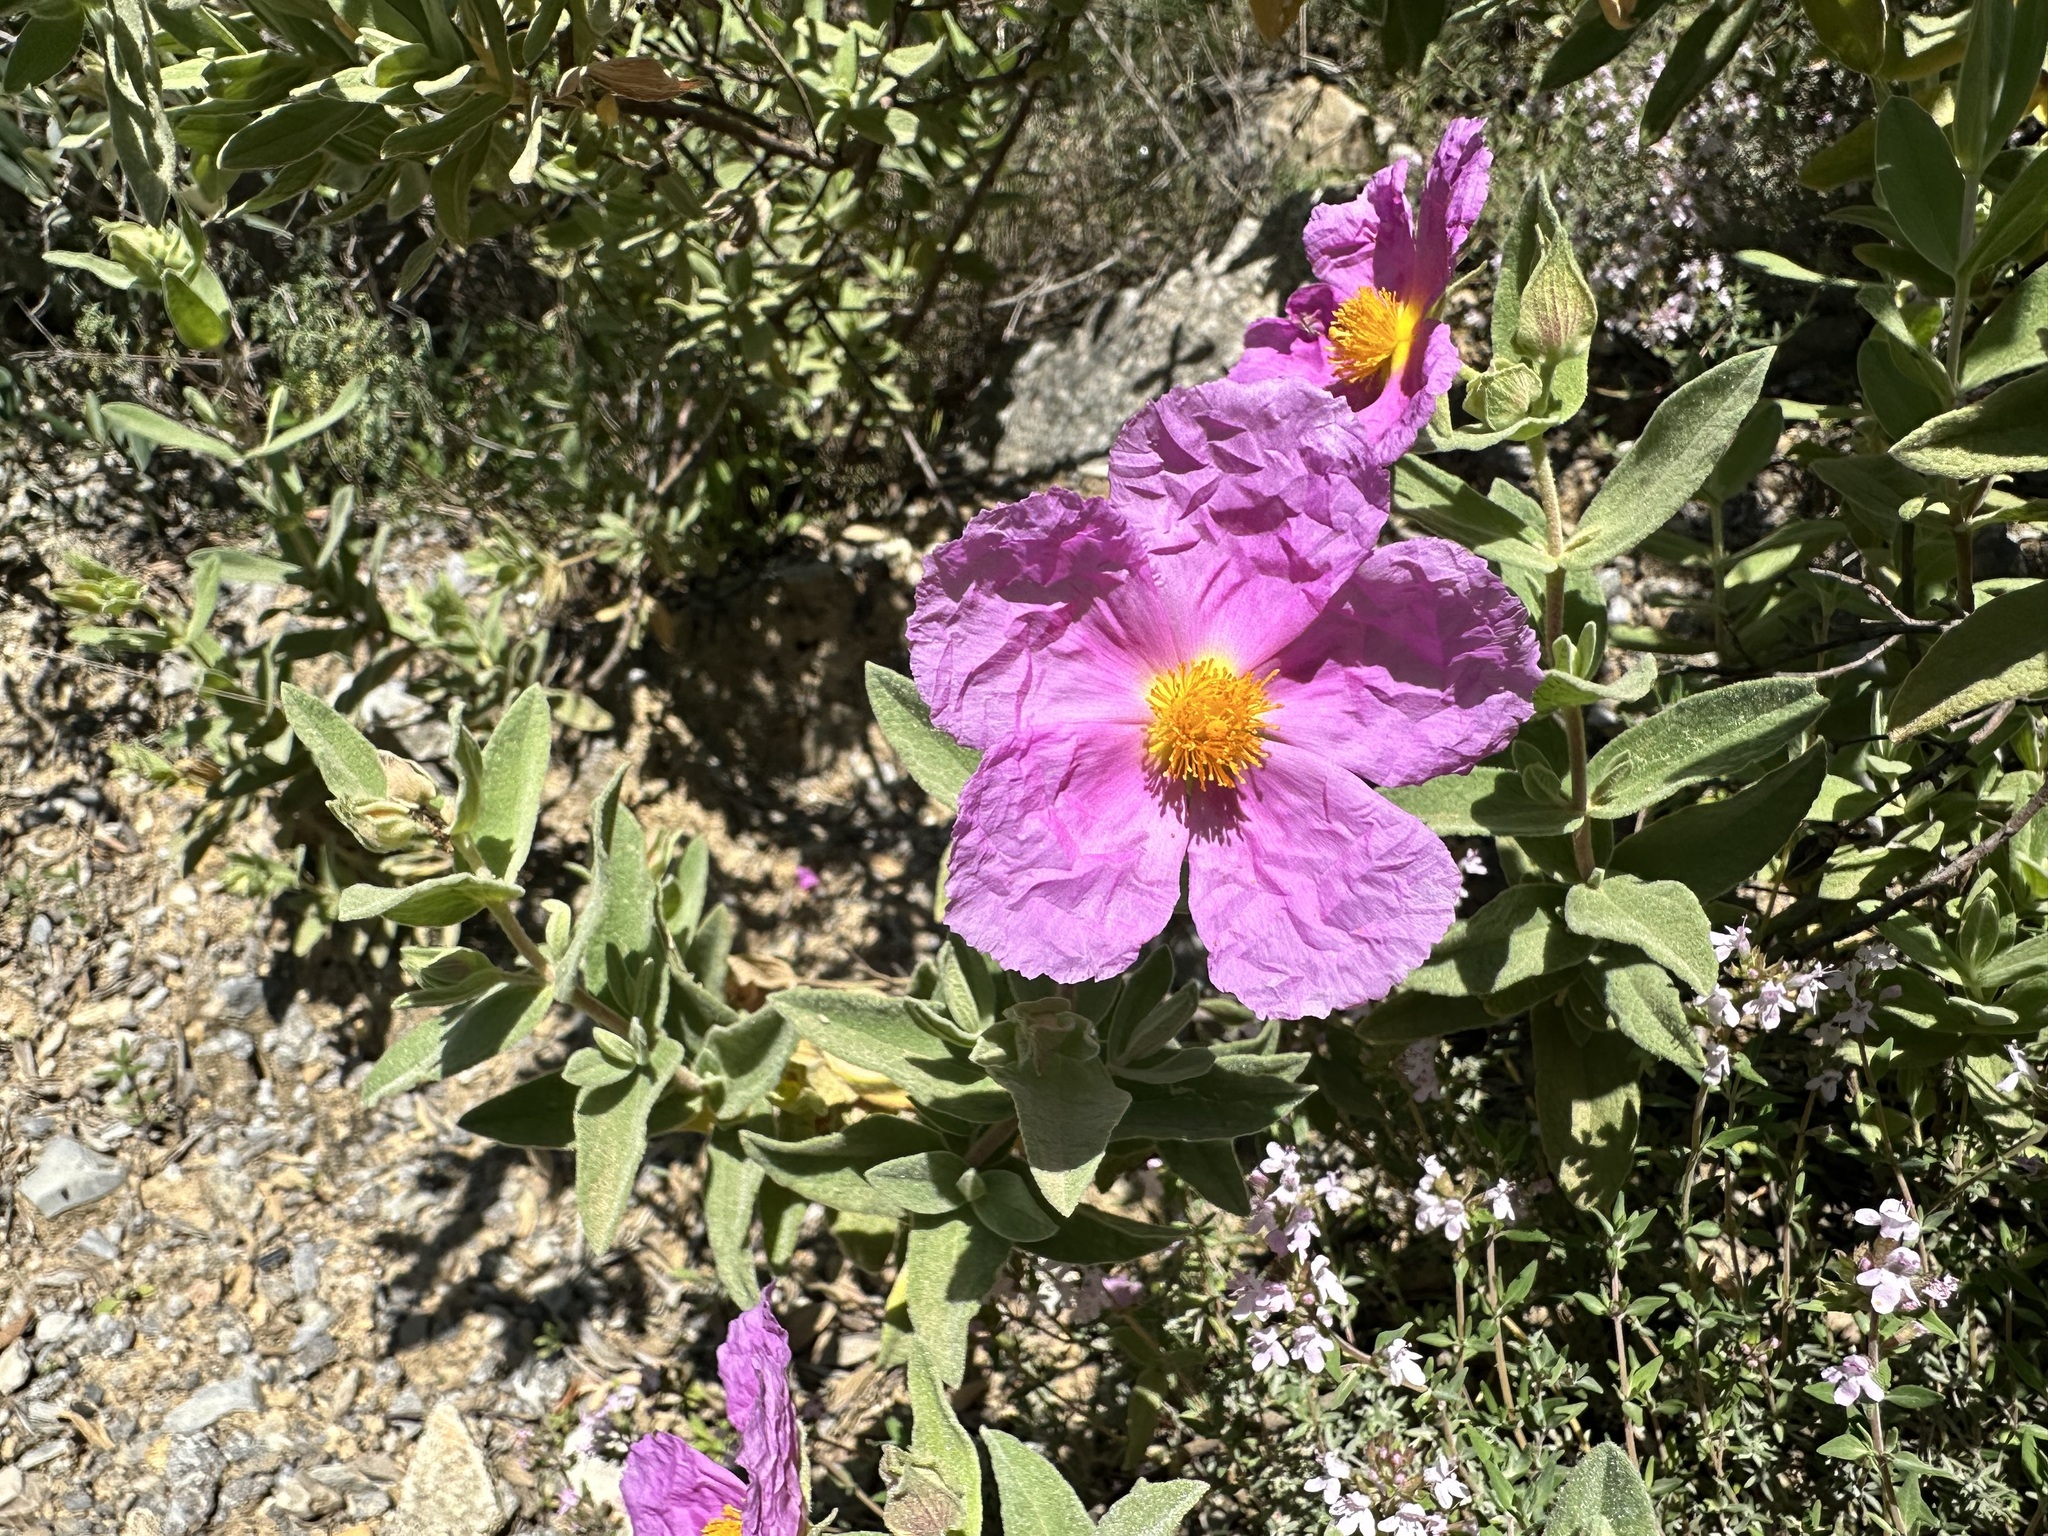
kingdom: Plantae
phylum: Tracheophyta
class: Magnoliopsida
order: Malvales
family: Cistaceae
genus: Cistus
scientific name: Cistus albidus
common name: White-leaf rock-rose
